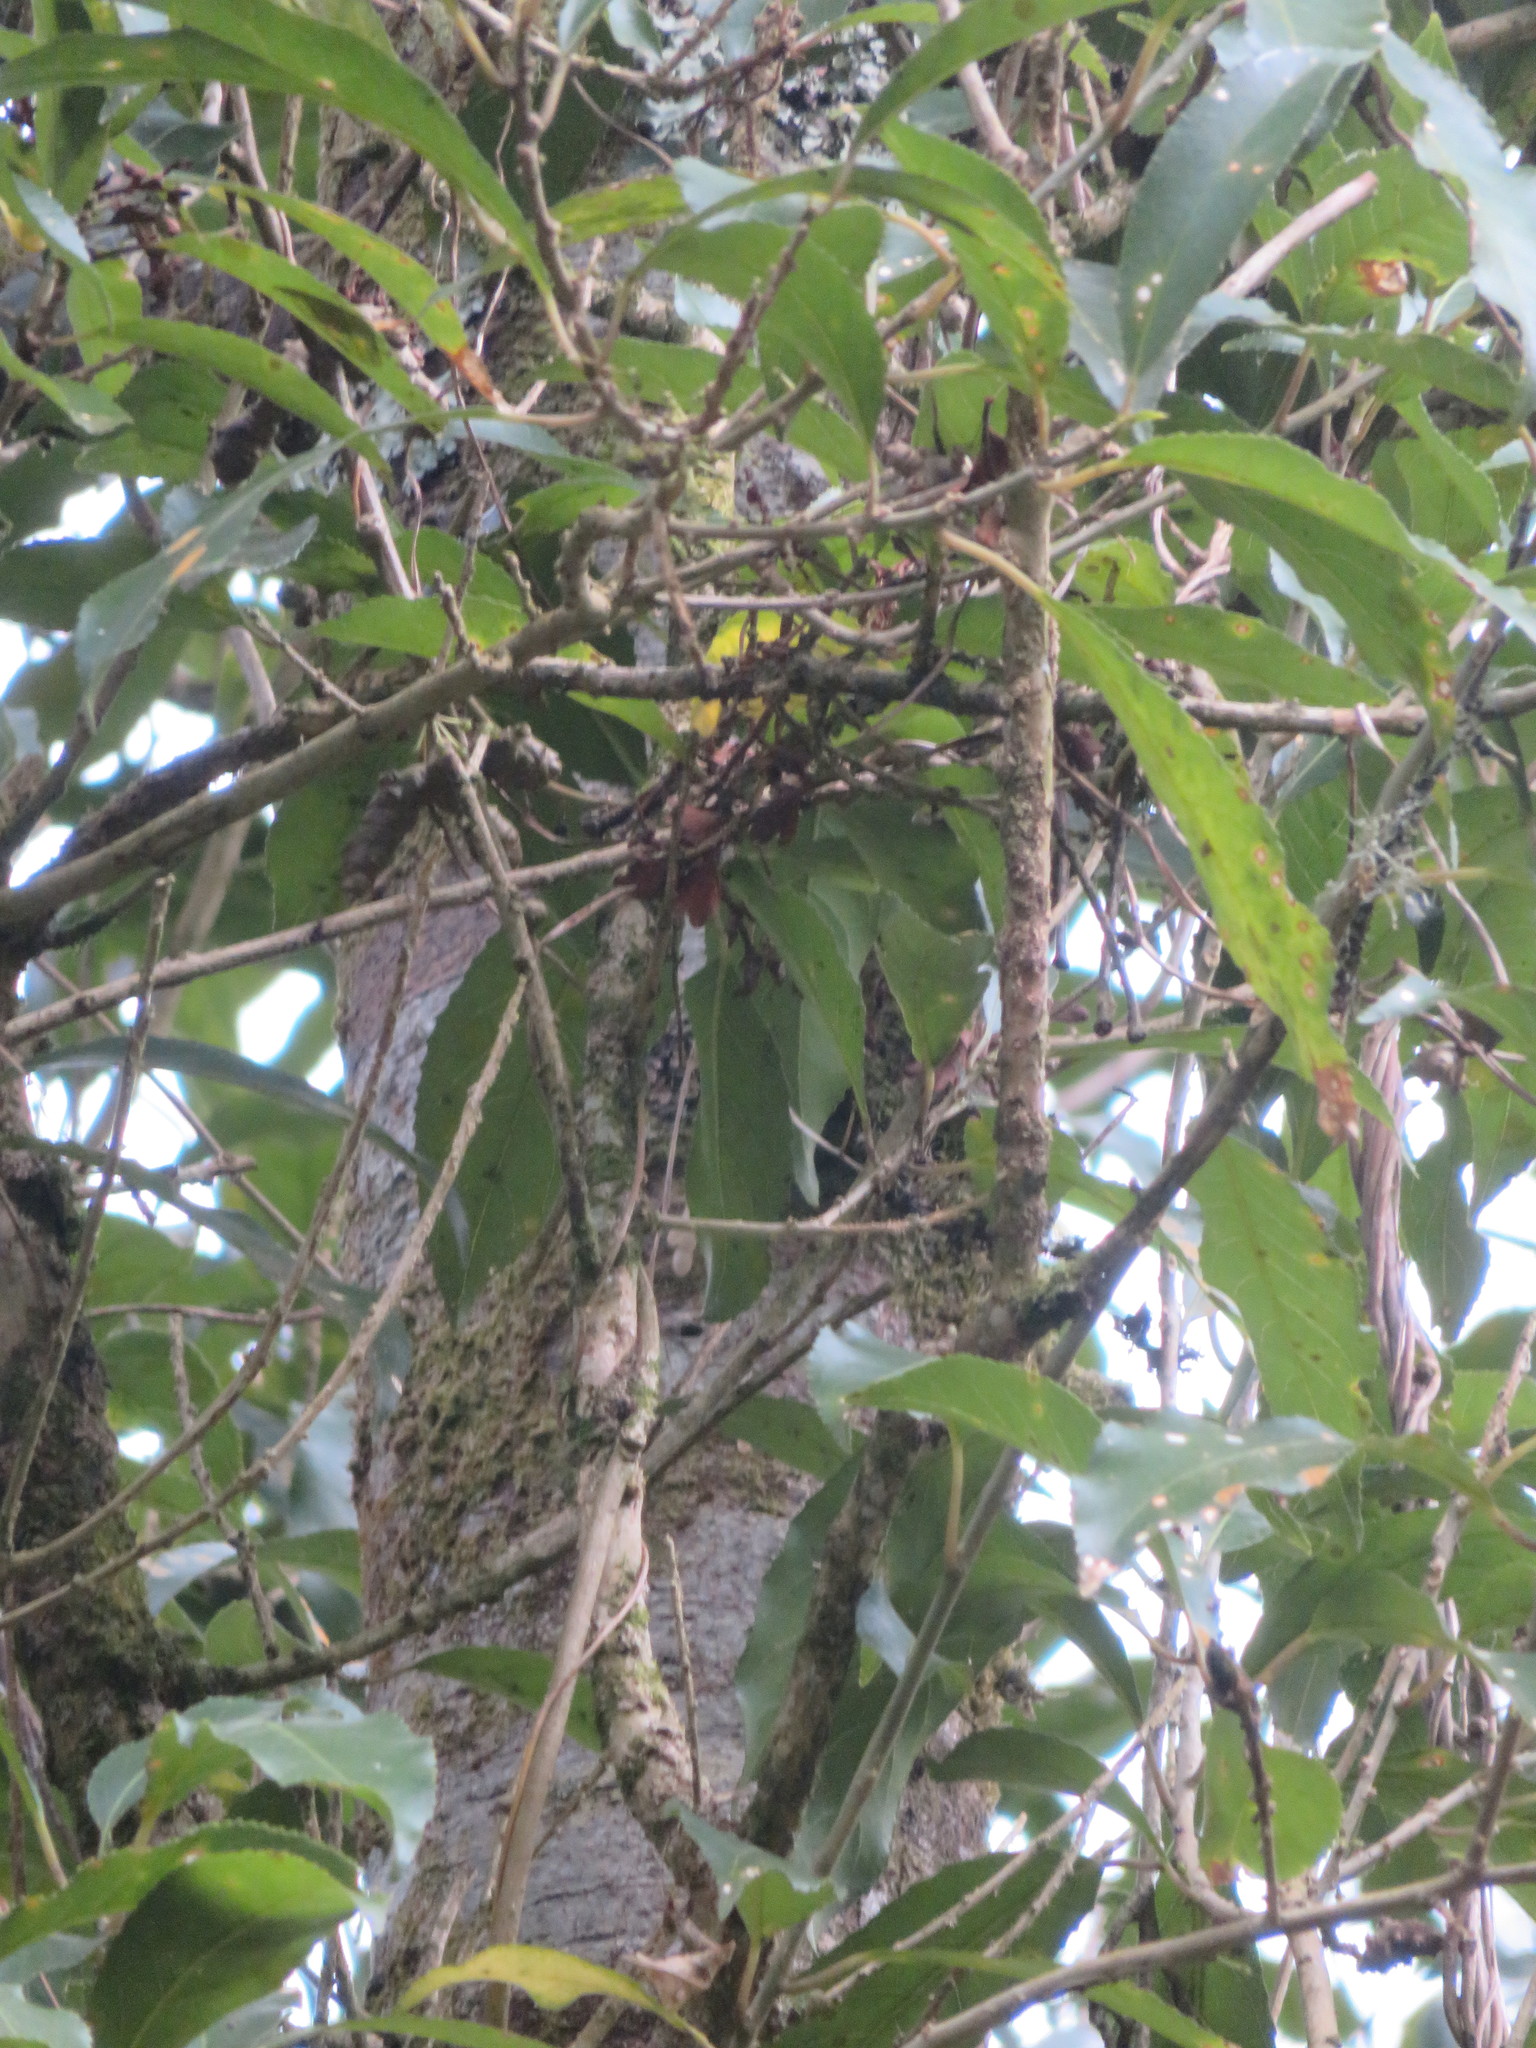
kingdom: Plantae
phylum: Tracheophyta
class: Magnoliopsida
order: Caryophyllales
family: Basellaceae
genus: Anredera
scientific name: Anredera cordifolia
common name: Heartleaf madeiravine
